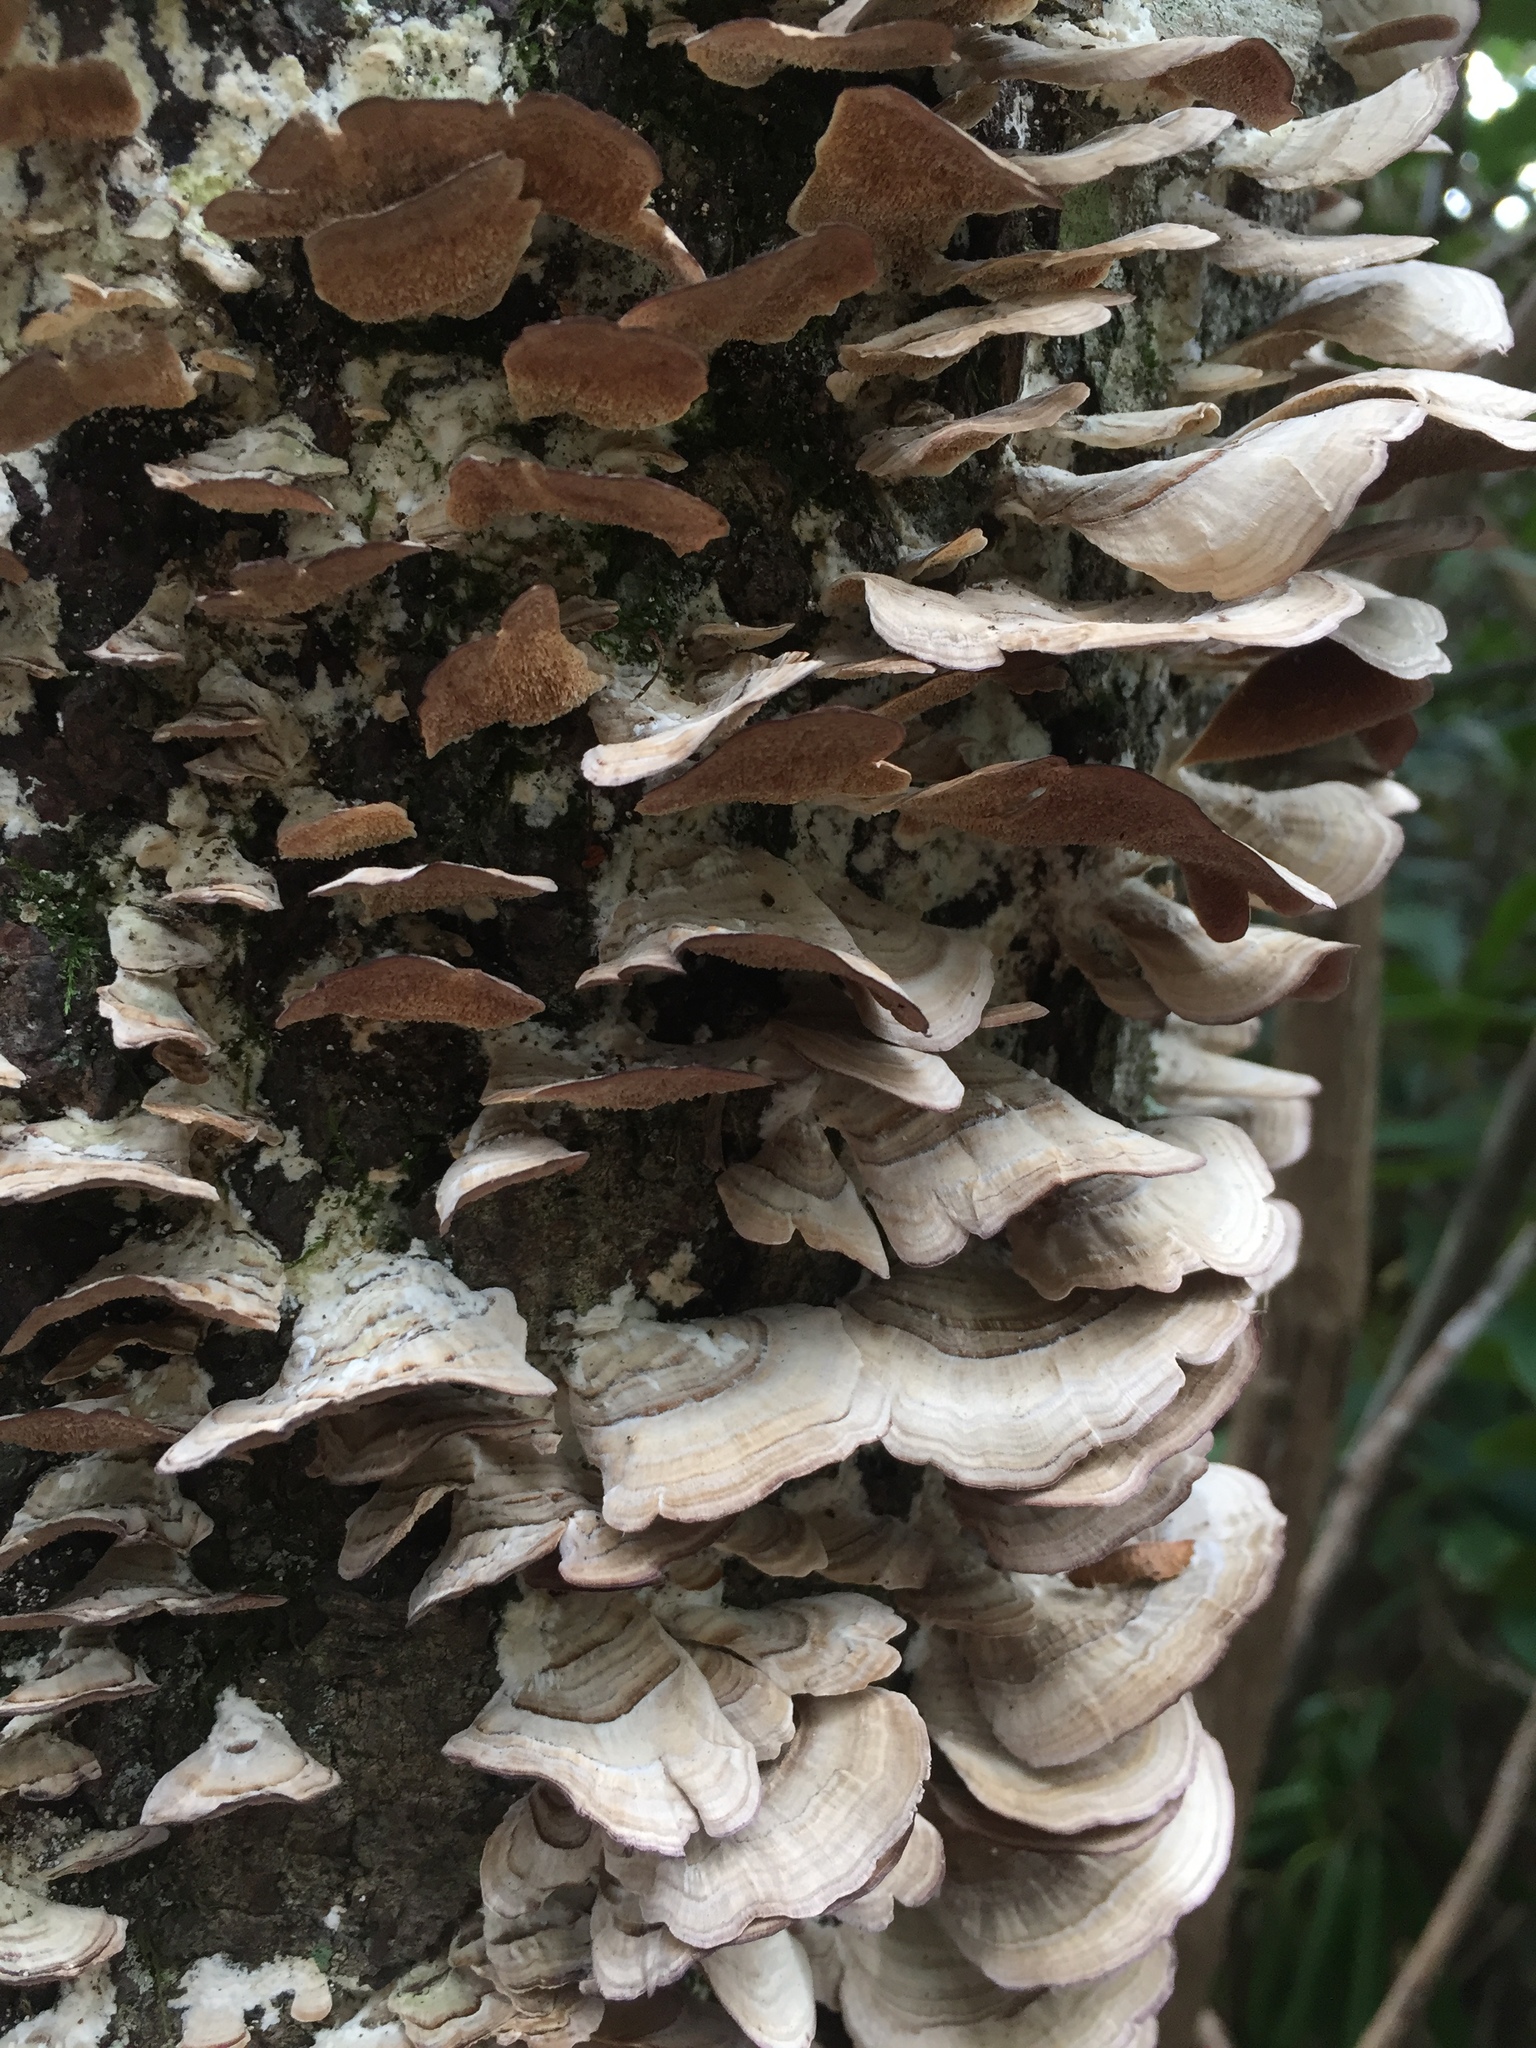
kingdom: Fungi
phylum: Basidiomycota
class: Agaricomycetes
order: Hymenochaetales
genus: Trichaptum
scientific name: Trichaptum biforme
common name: Violet-toothed polypore
